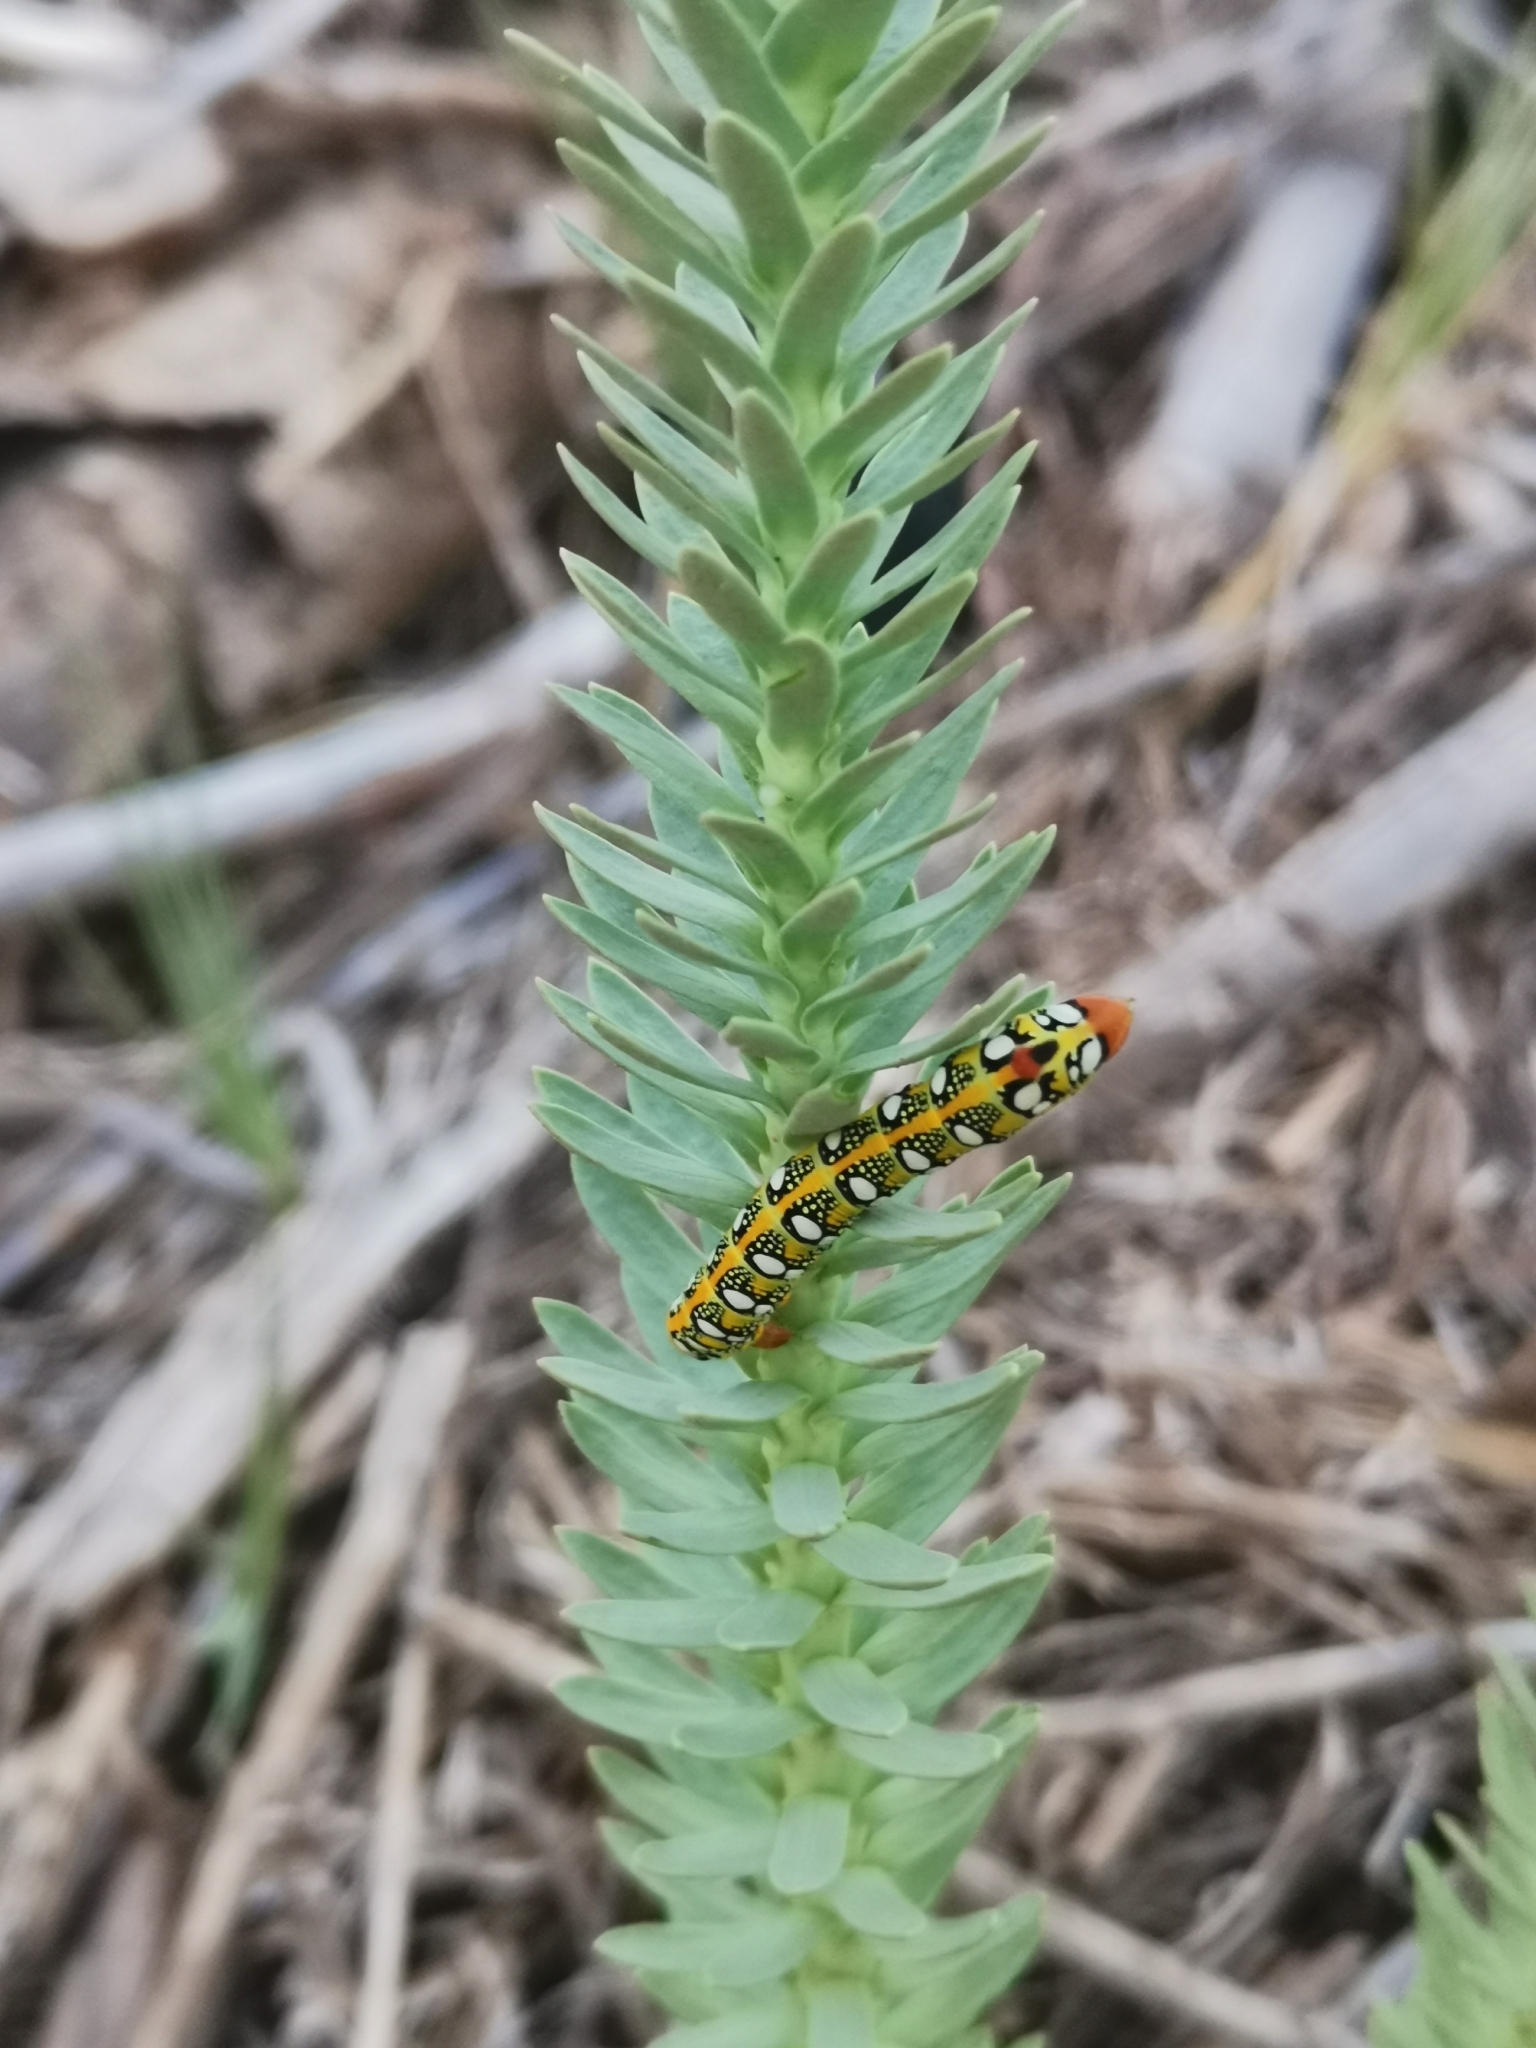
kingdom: Animalia
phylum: Arthropoda
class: Insecta
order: Lepidoptera
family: Sphingidae
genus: Hyles
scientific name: Hyles euphorbiae
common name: Spurge hawk-moth
